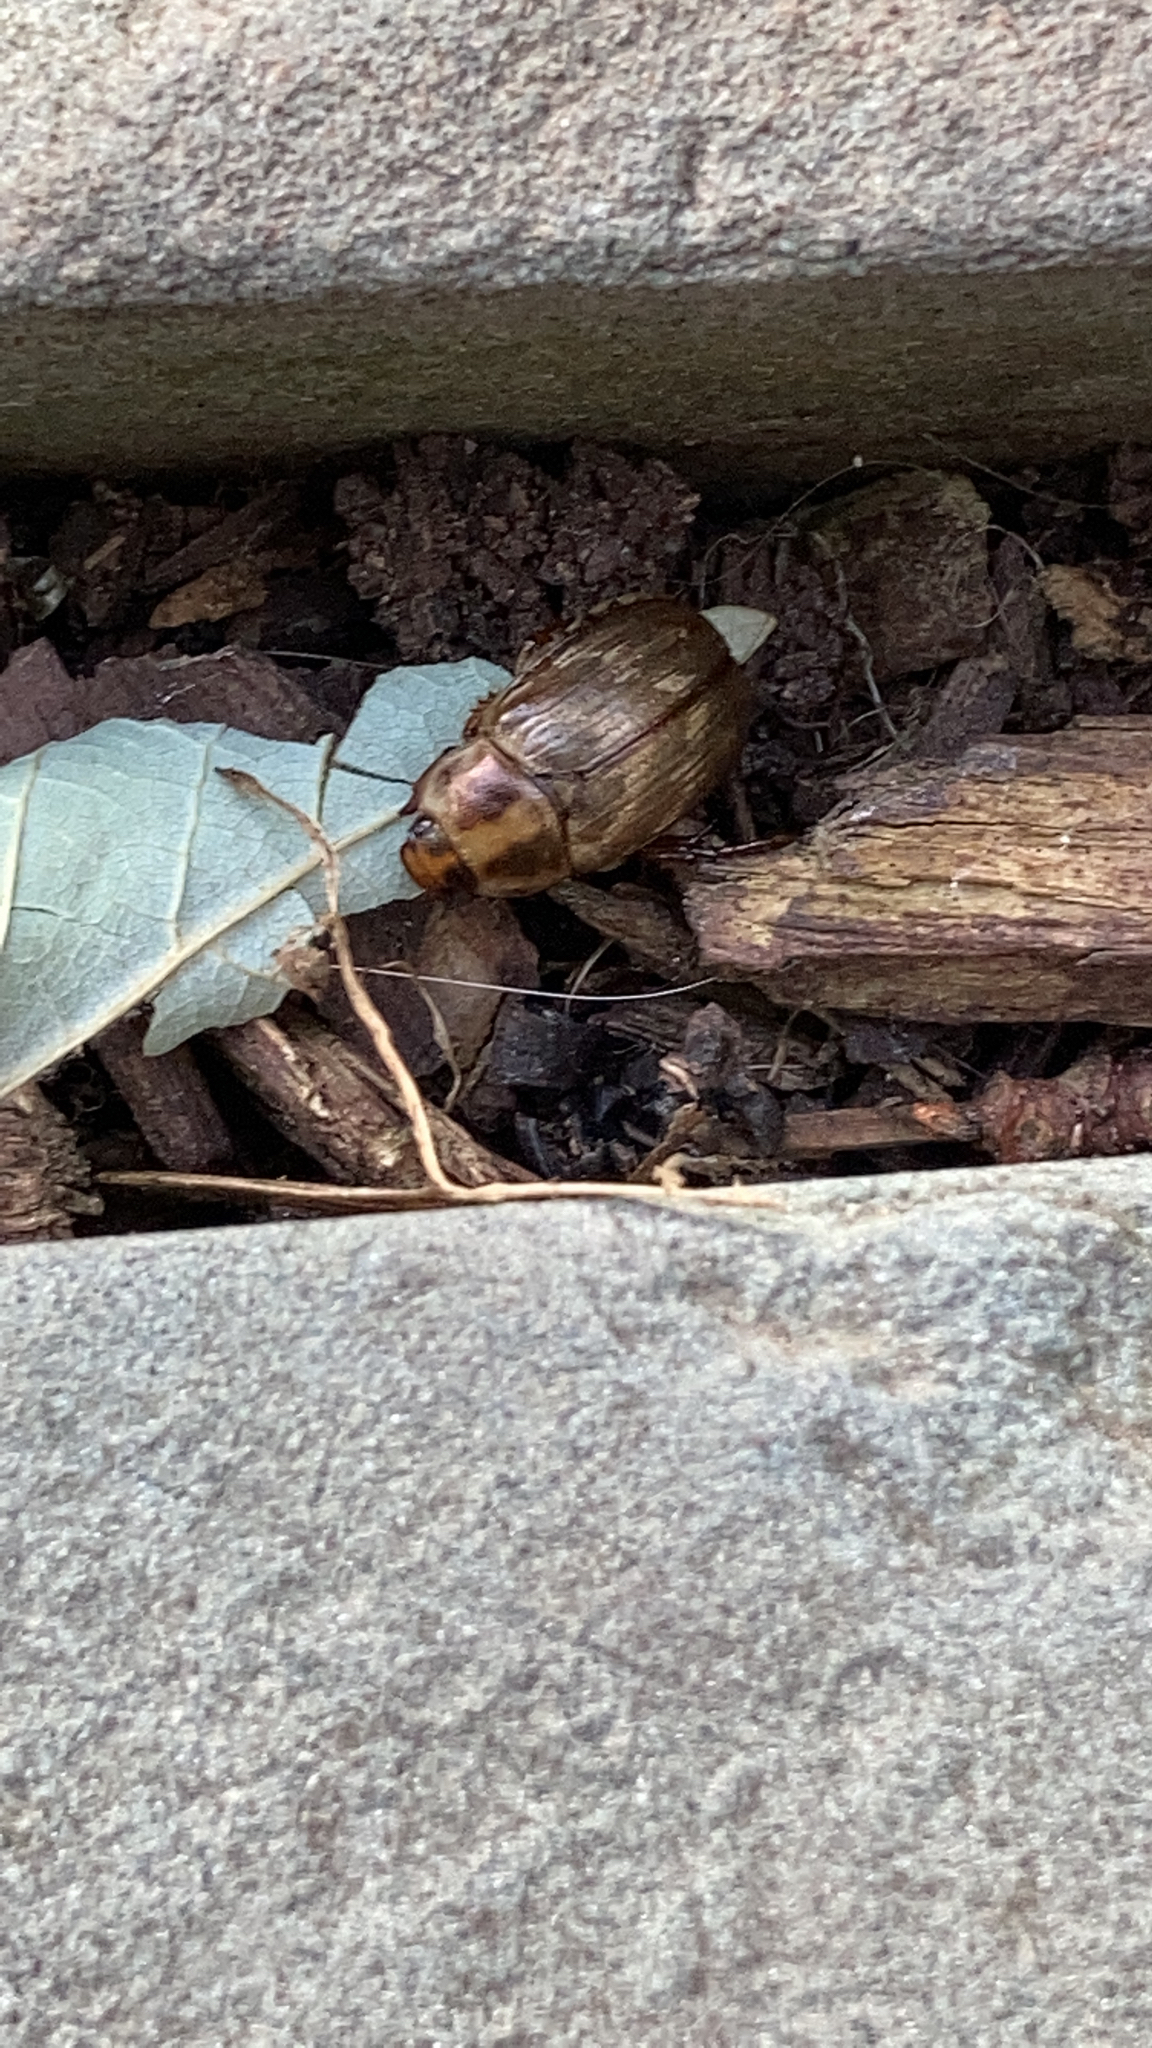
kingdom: Animalia
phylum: Arthropoda
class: Insecta
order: Coleoptera
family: Scarabaeidae
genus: Exomala
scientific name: Exomala orientalis
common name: Oriental beetle
